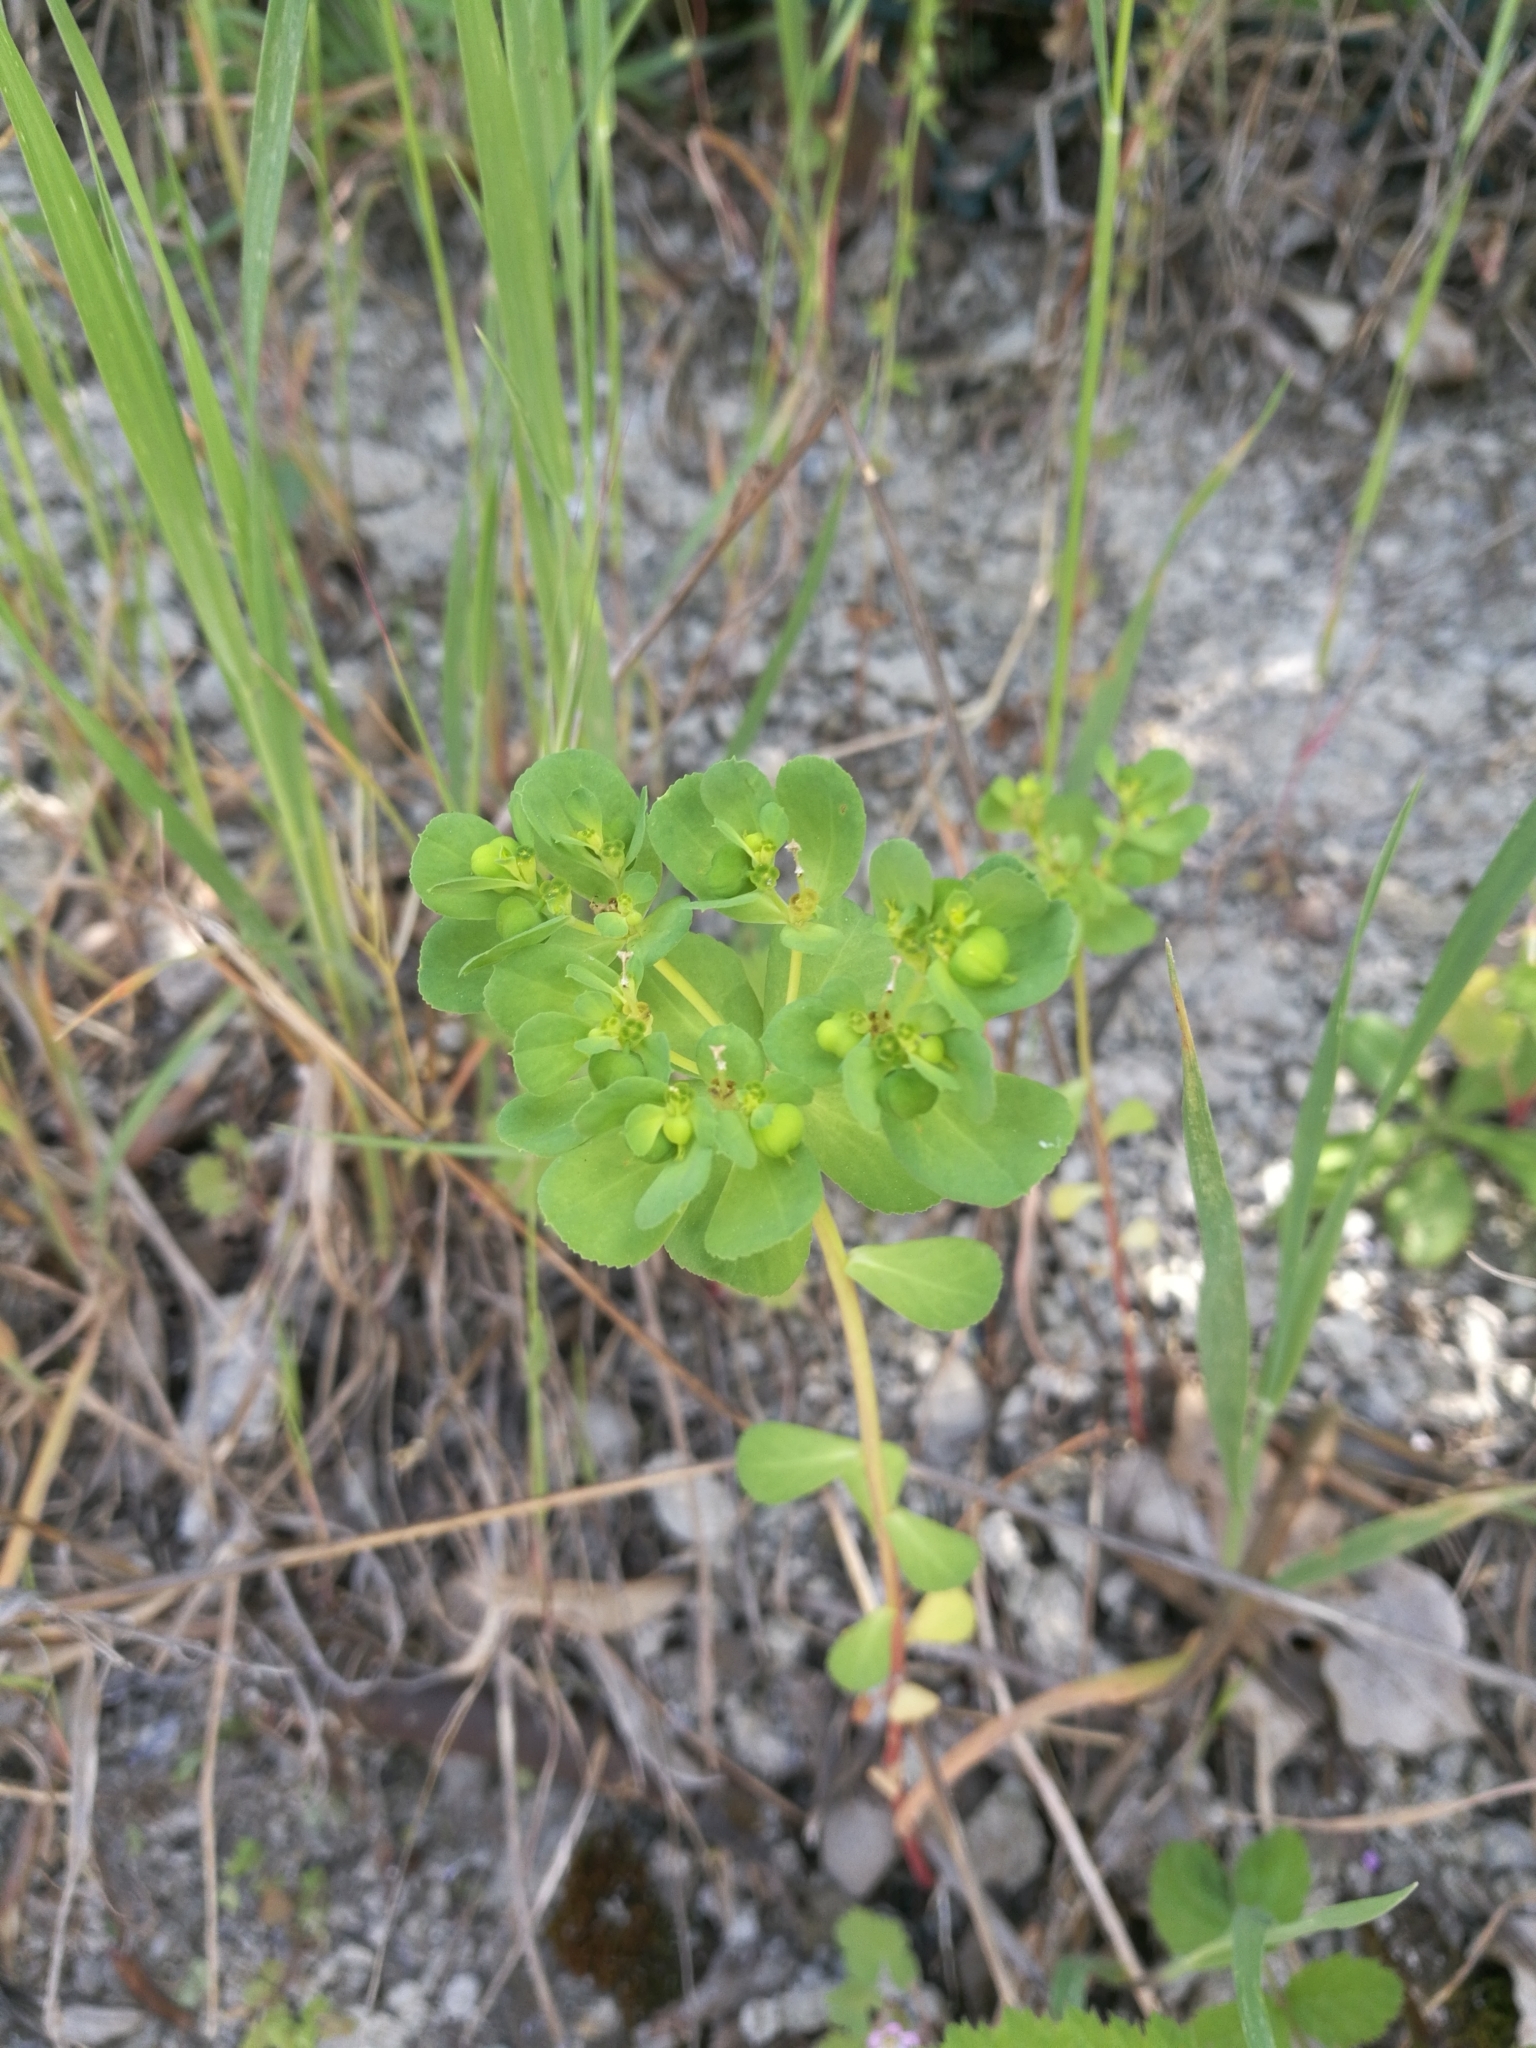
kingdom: Plantae
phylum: Tracheophyta
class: Magnoliopsida
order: Malpighiales
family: Euphorbiaceae
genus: Euphorbia
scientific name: Euphorbia helioscopia
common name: Sun spurge
